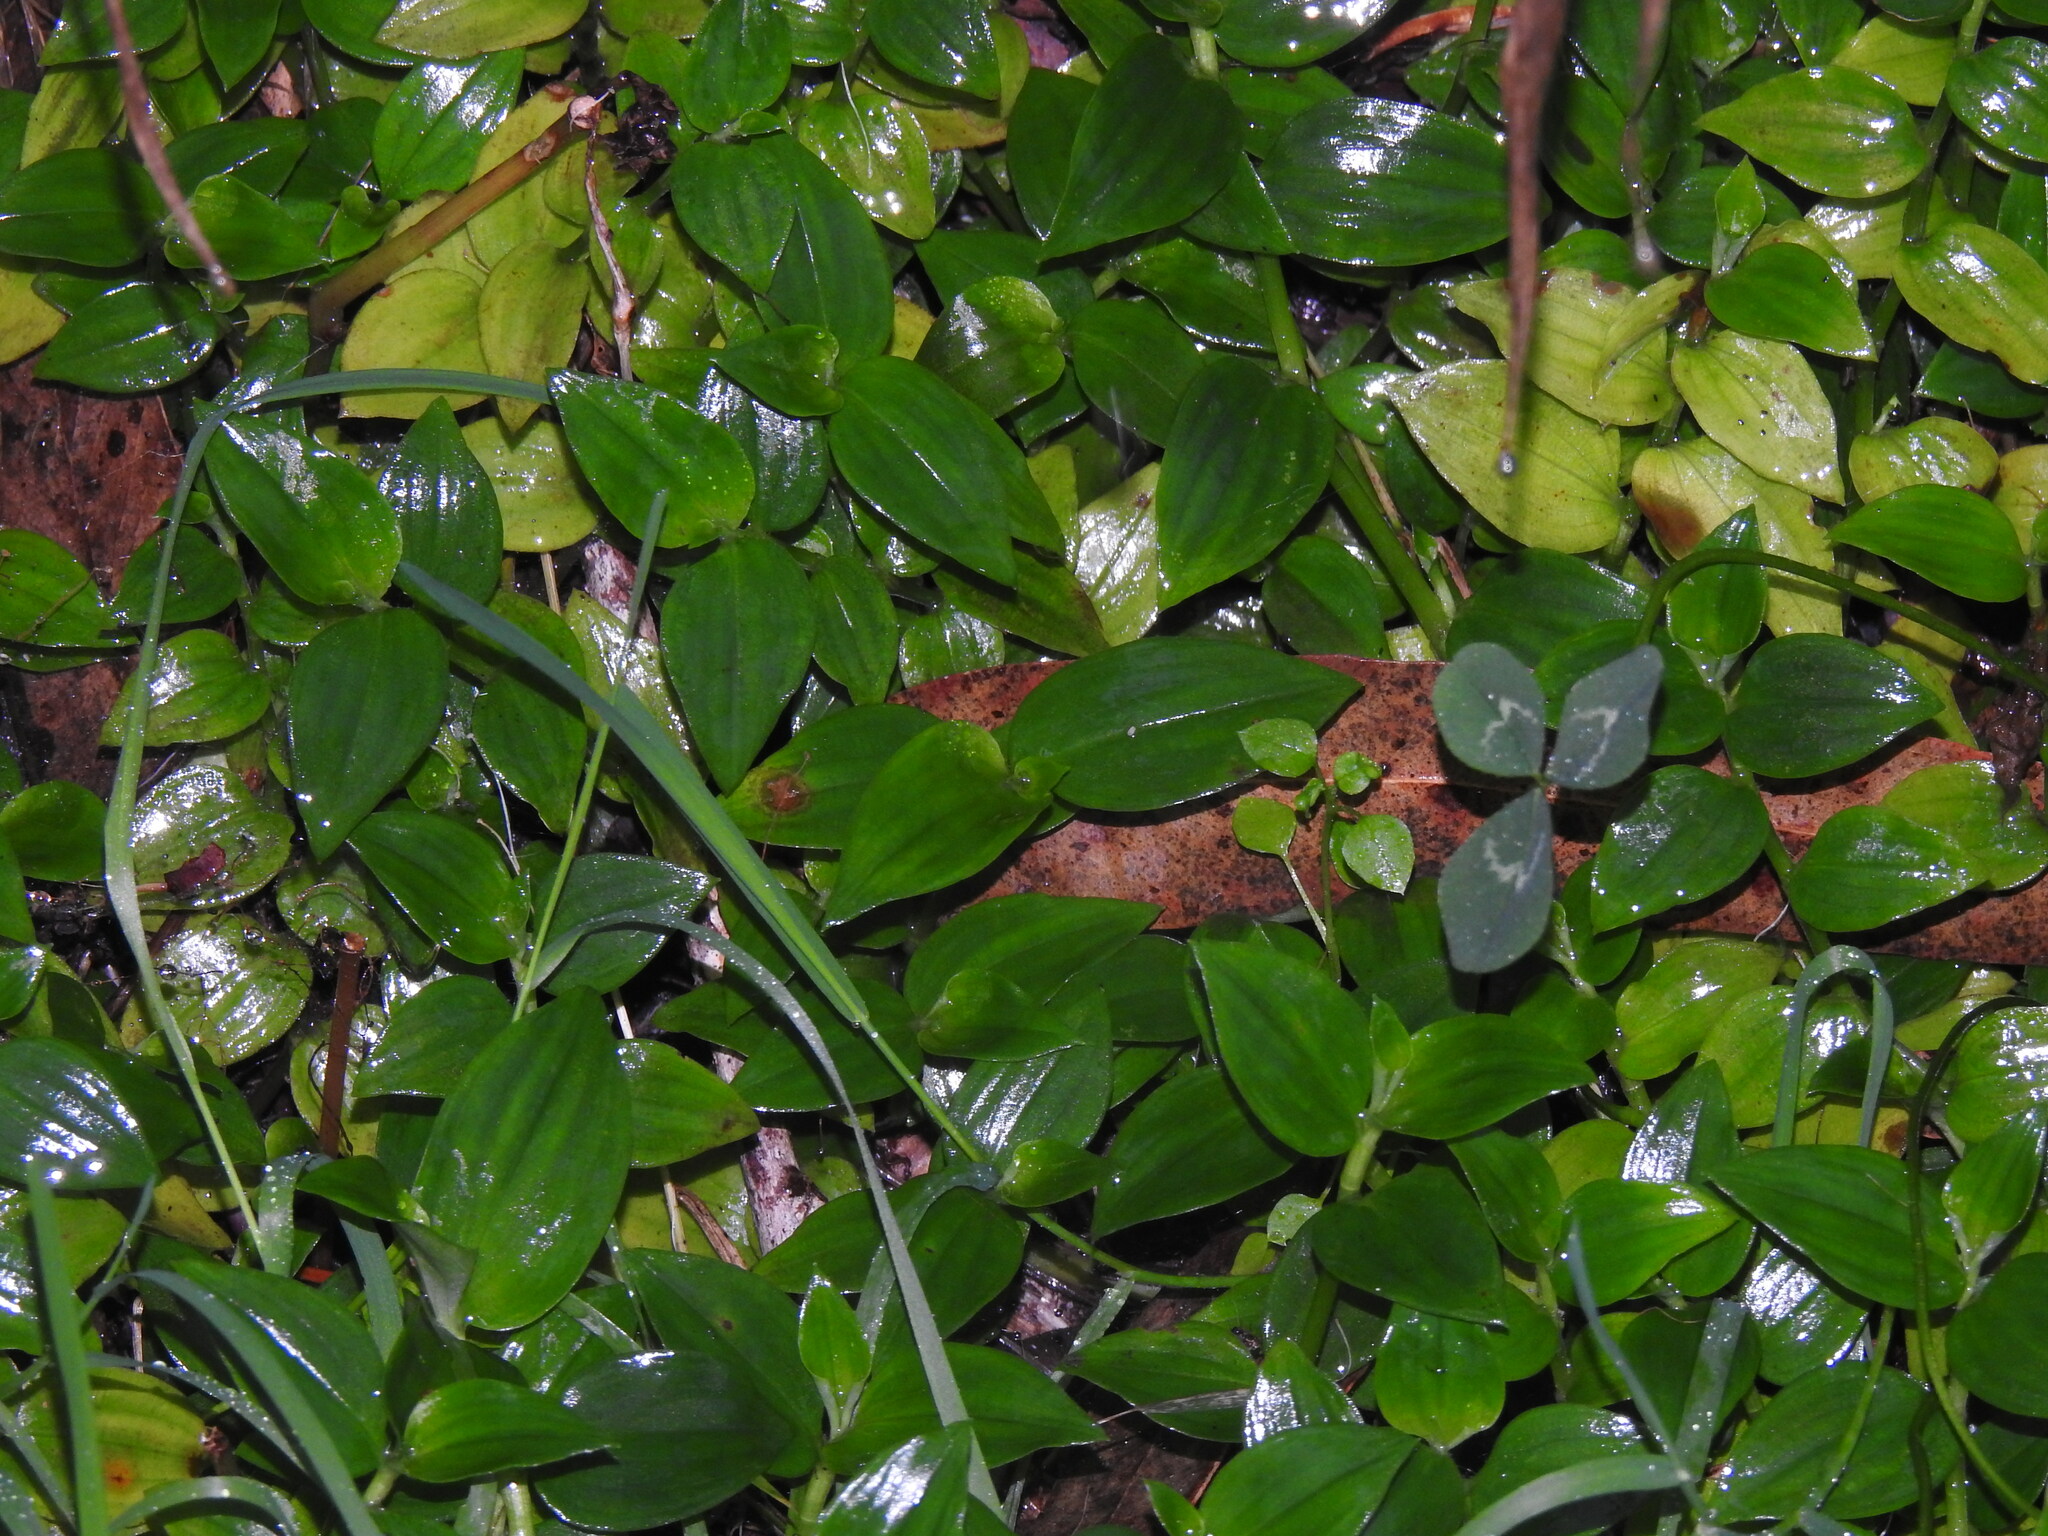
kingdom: Plantae
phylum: Tracheophyta
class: Liliopsida
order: Commelinales
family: Commelinaceae
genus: Tradescantia
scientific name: Tradescantia fluminensis
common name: Wandering-jew
